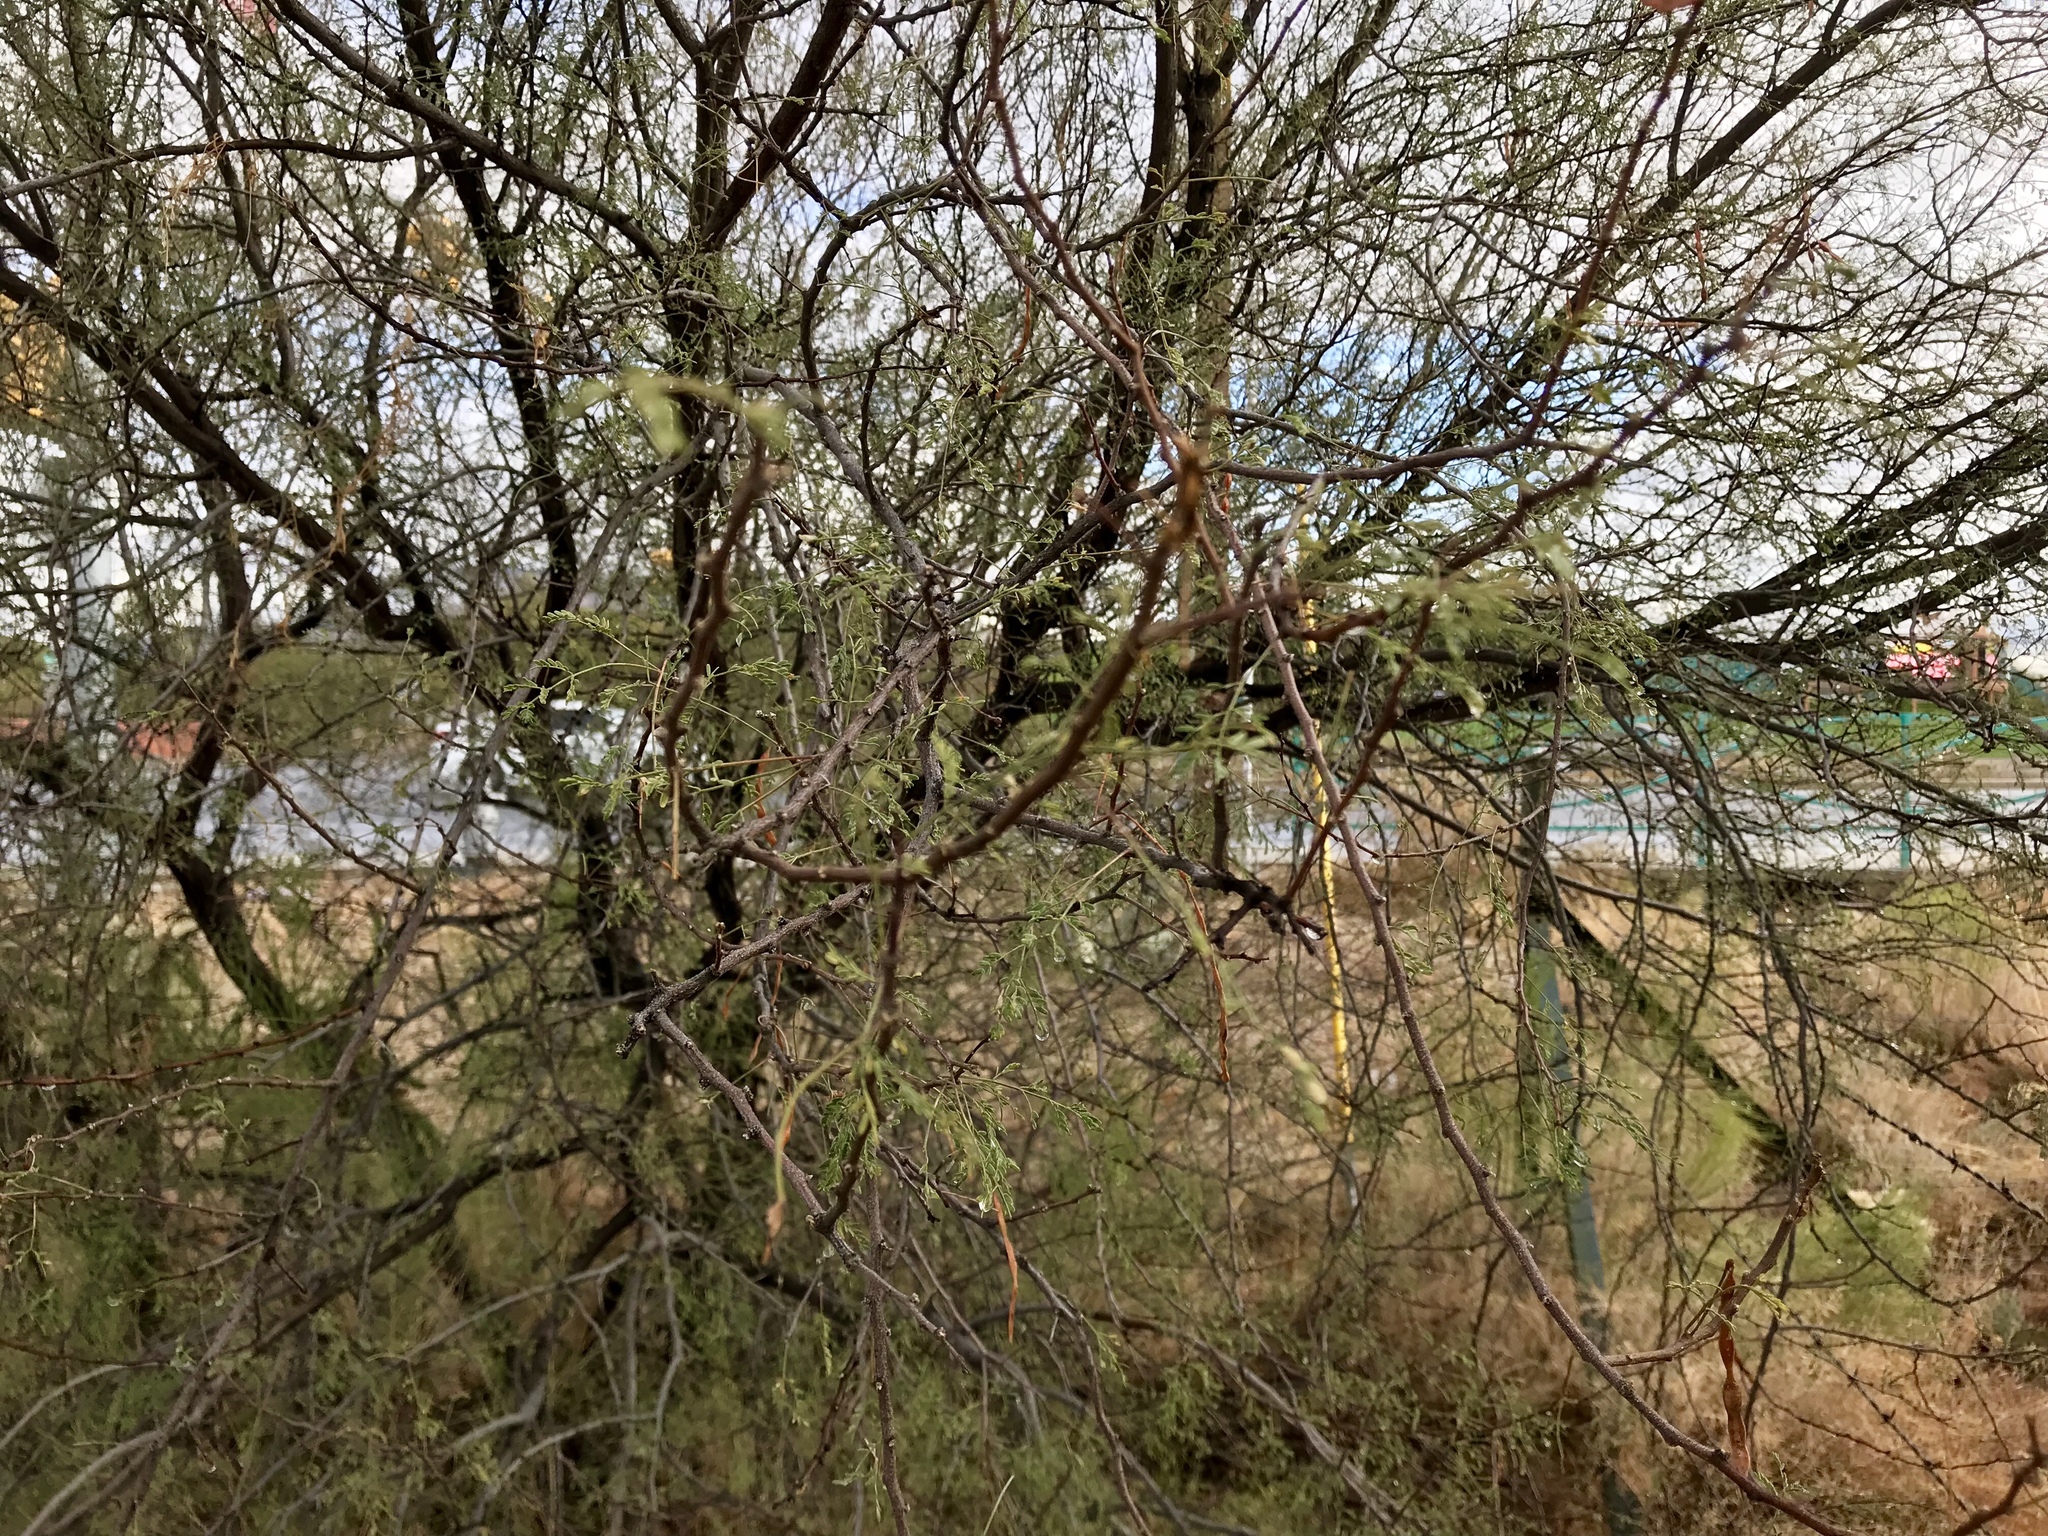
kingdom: Plantae
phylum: Tracheophyta
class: Gnetopsida
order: Ephedrales
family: Ephedraceae
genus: Ephedra
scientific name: Ephedra trifurca
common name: Mexican-tea
